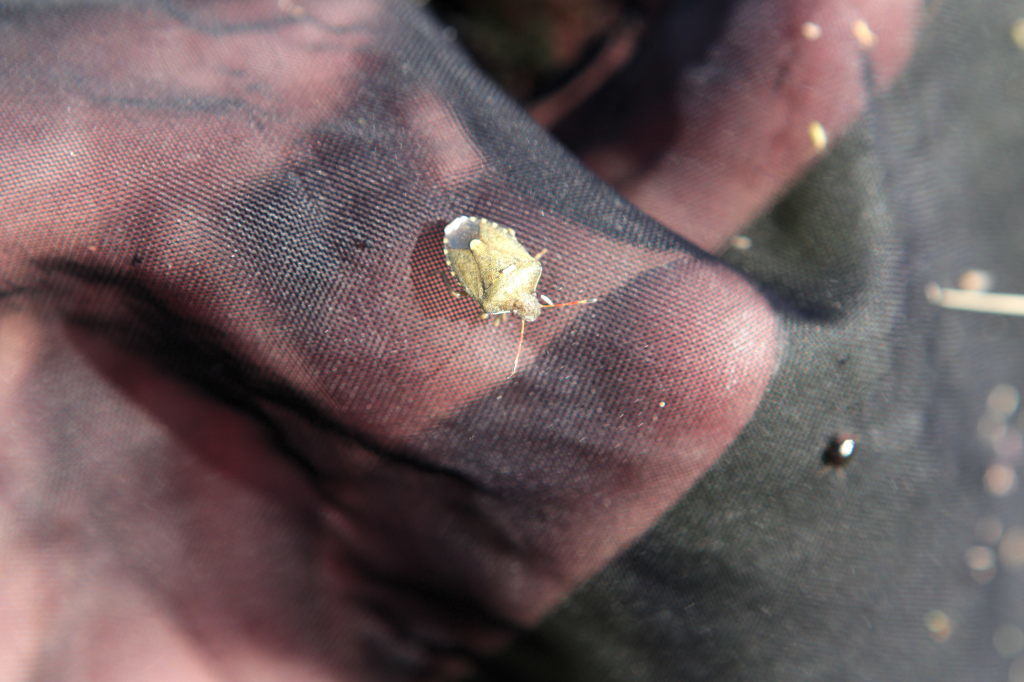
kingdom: Animalia
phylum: Arthropoda
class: Insecta
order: Hemiptera
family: Pentatomidae
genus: Holcostethus
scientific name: Holcostethus strictus
